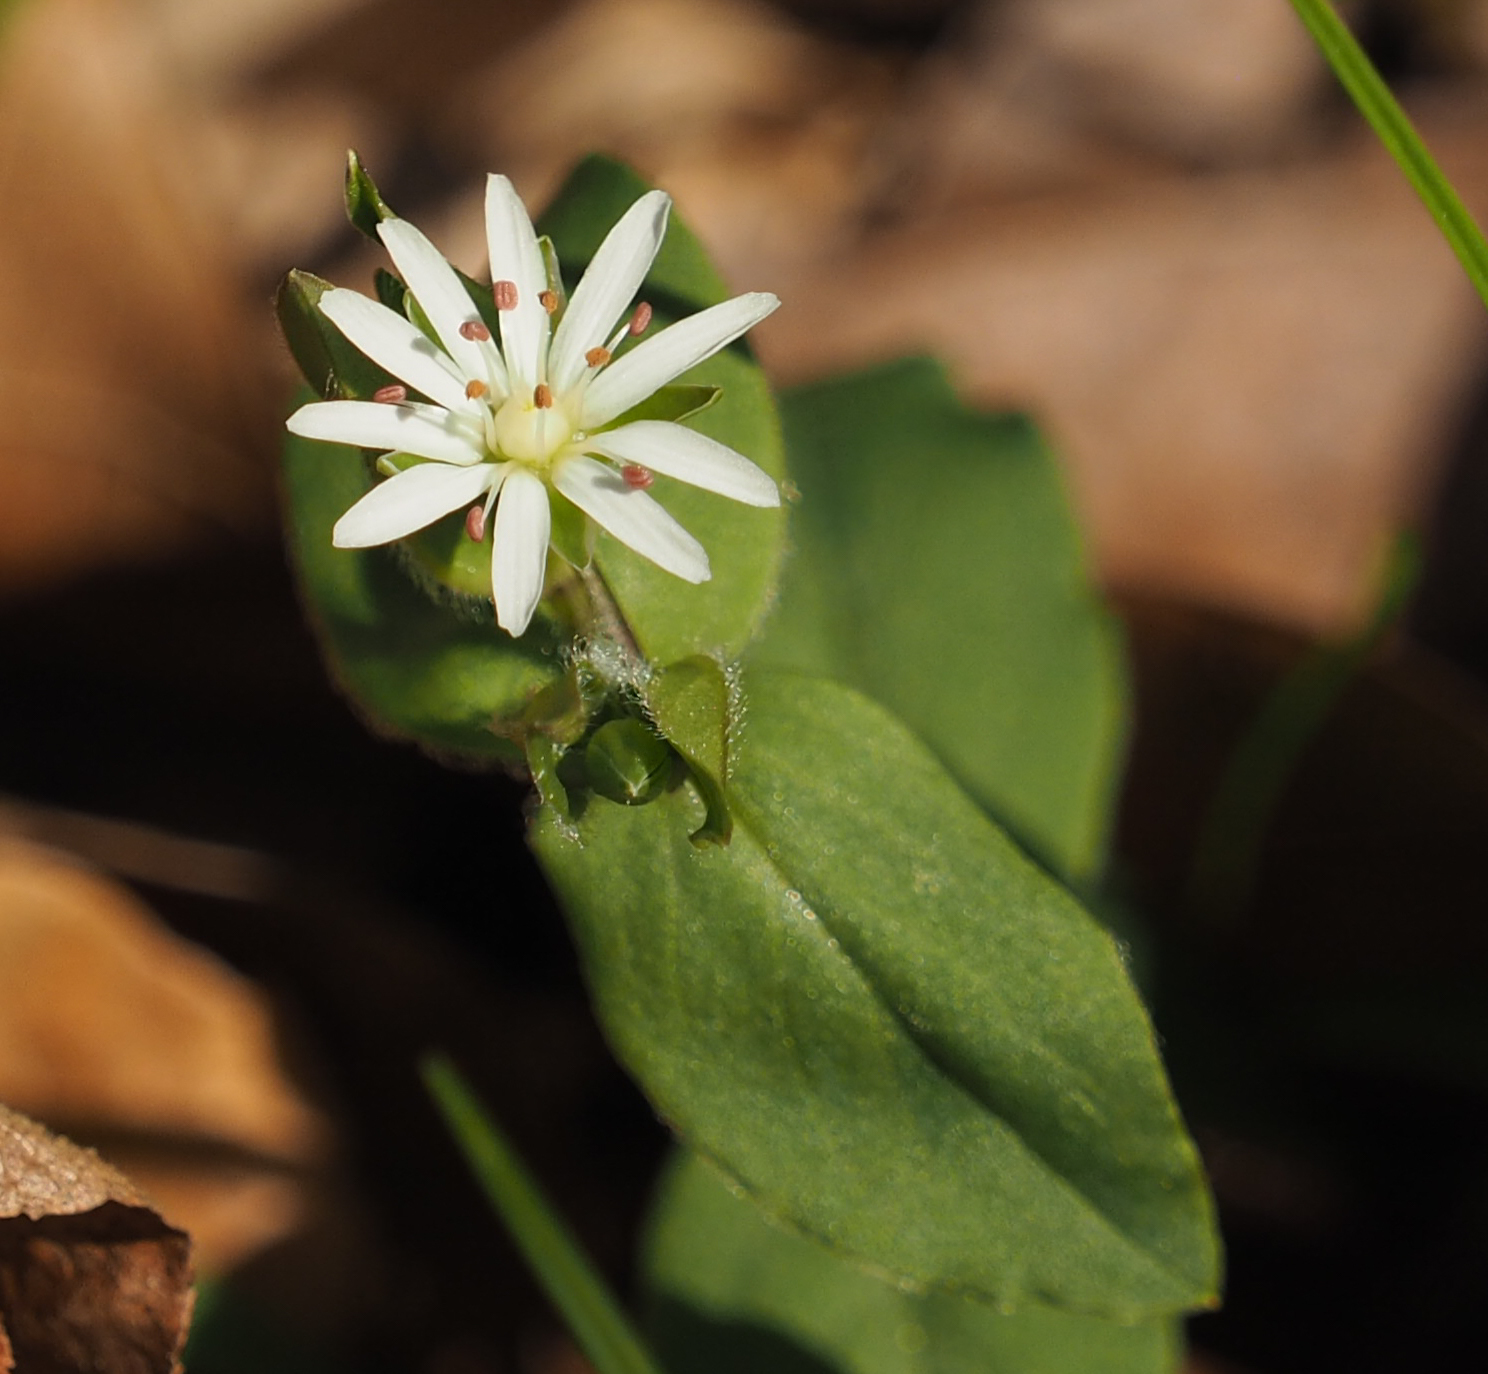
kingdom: Plantae
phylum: Tracheophyta
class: Magnoliopsida
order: Caryophyllales
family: Caryophyllaceae
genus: Stellaria
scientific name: Stellaria pubera
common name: Star chickweed
